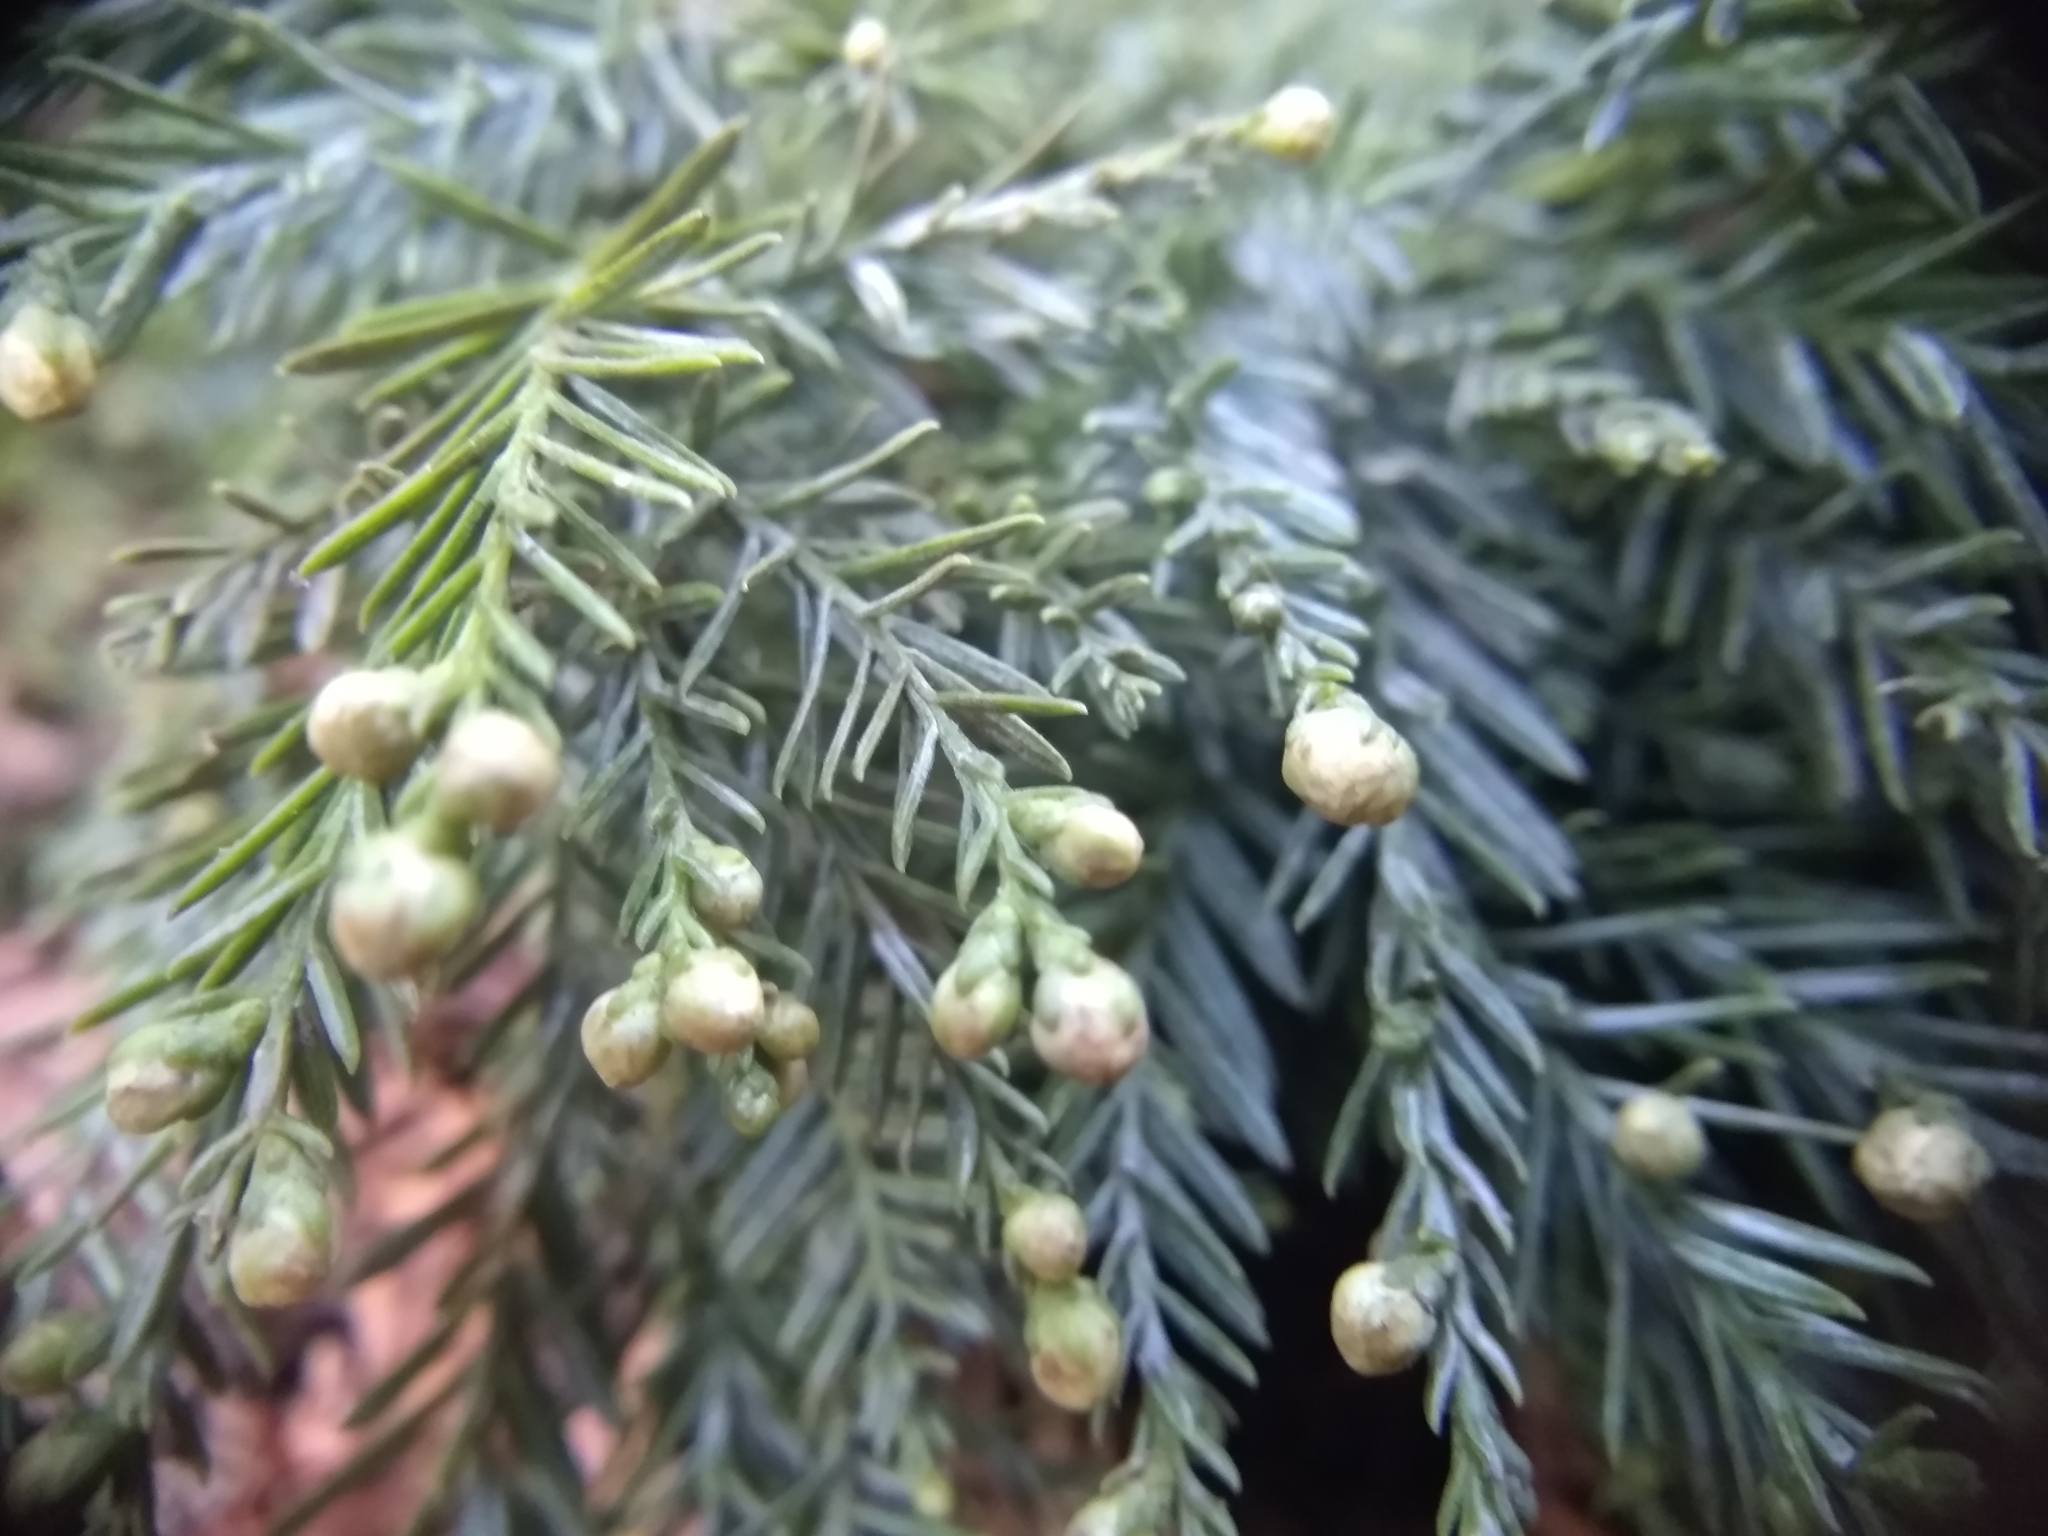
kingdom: Plantae
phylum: Tracheophyta
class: Pinopsida
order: Pinales
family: Cupressaceae
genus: Sequoia
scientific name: Sequoia sempervirens
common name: Coast redwood
